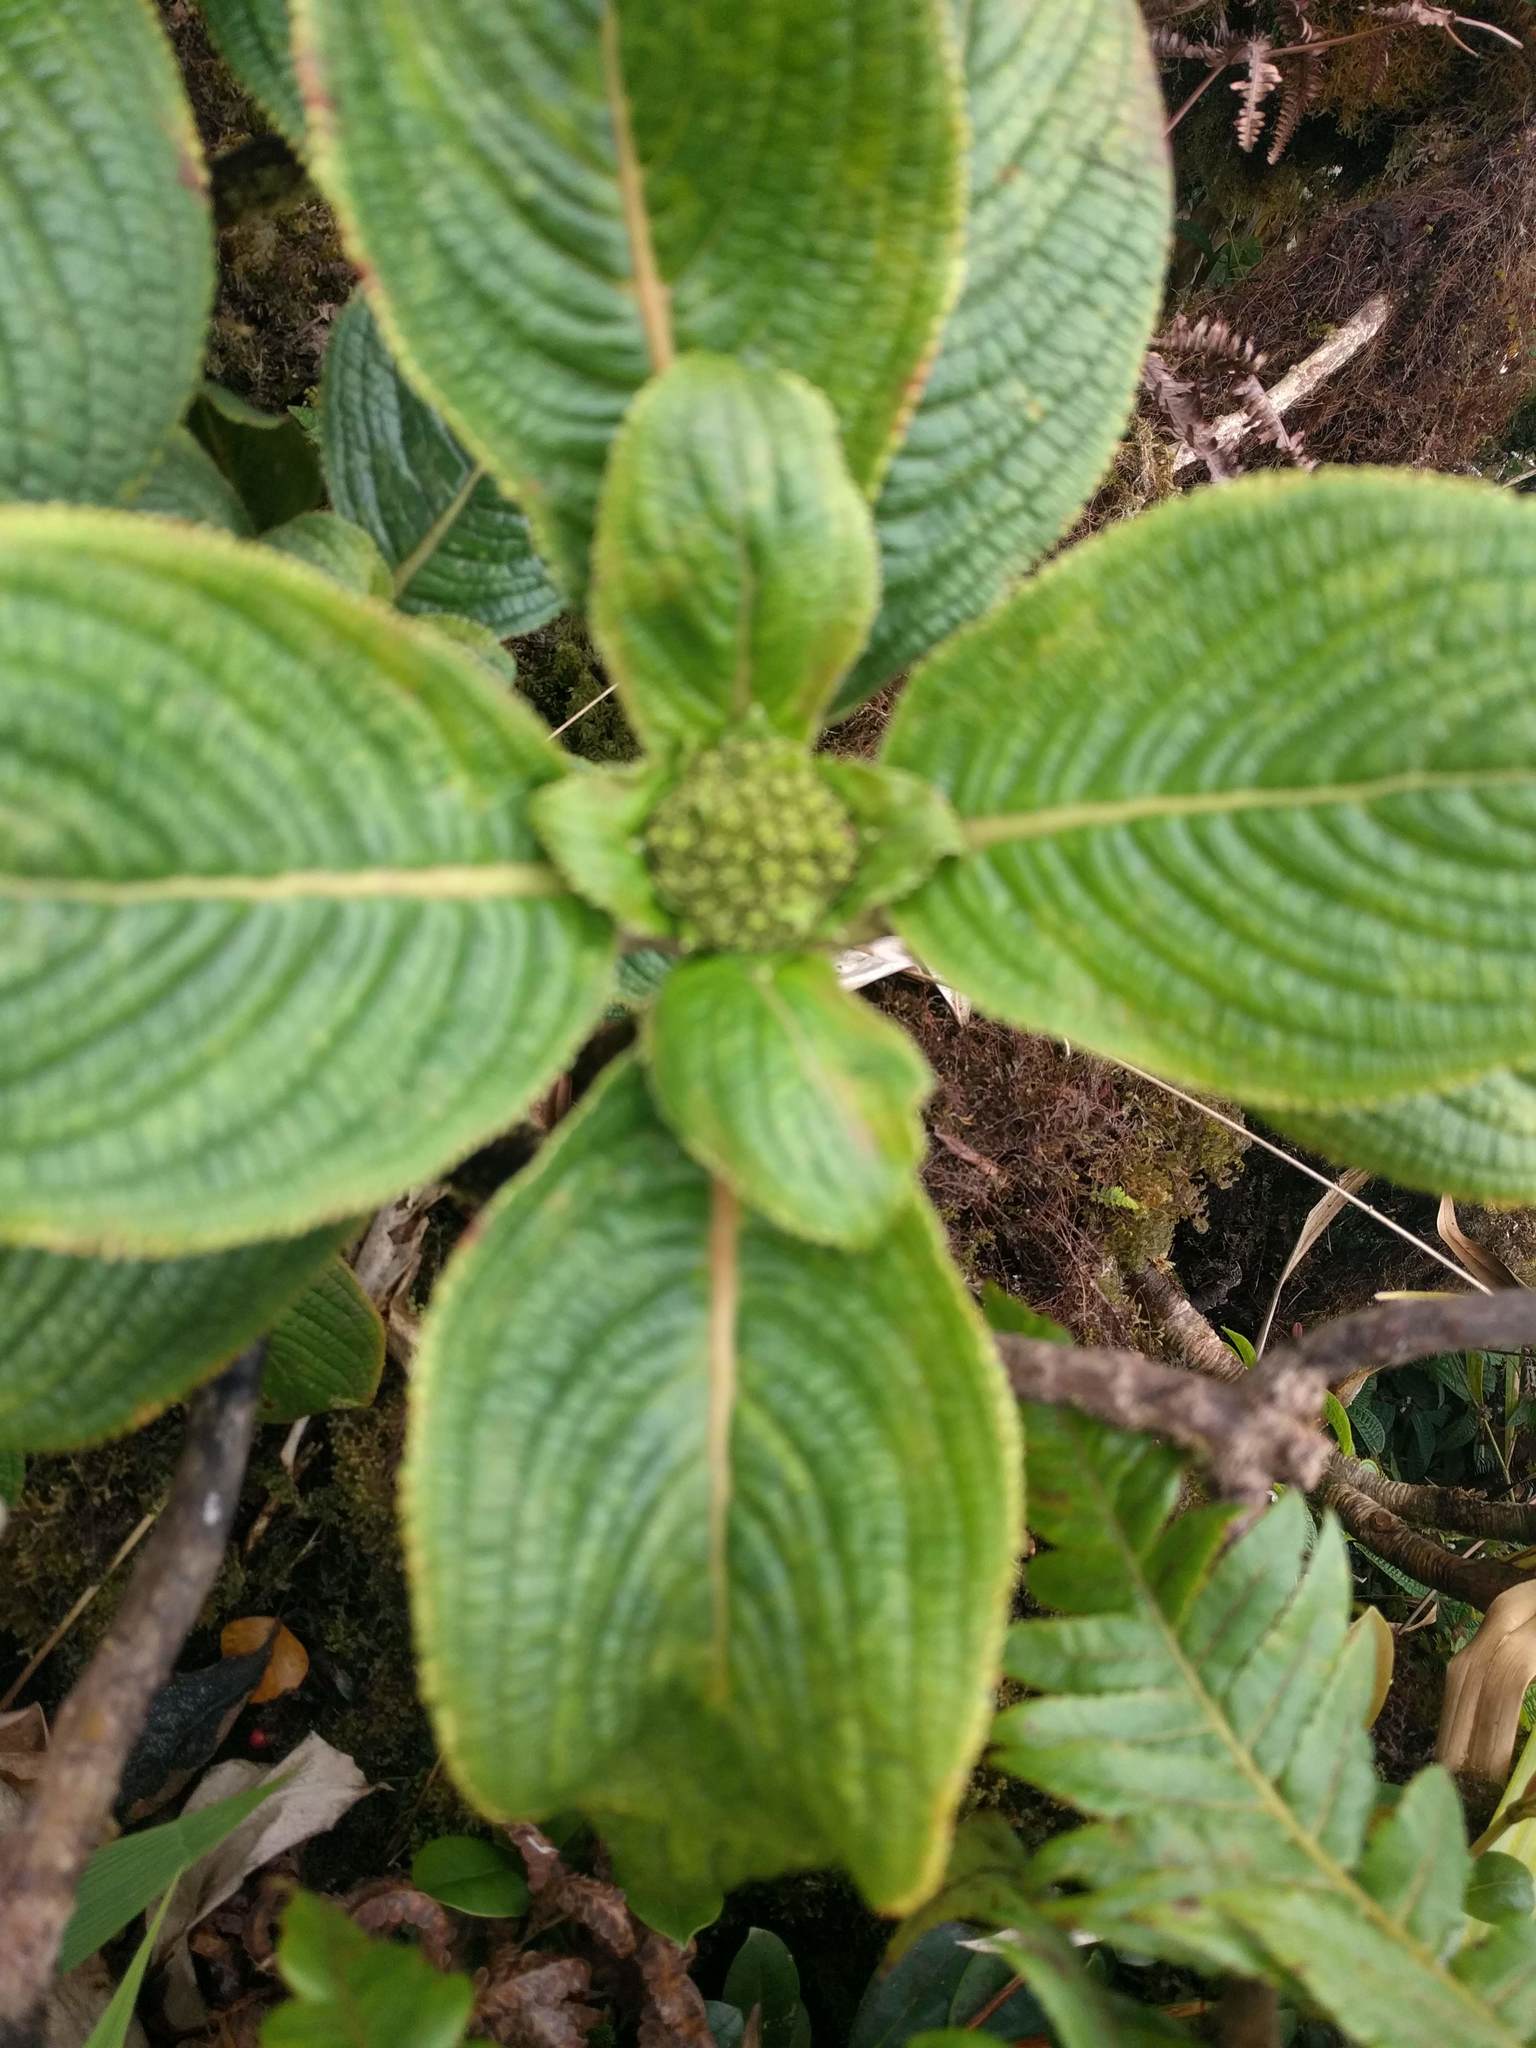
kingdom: Plantae
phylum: Tracheophyta
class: Magnoliopsida
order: Cornales
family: Hydrangeaceae
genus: Hydrangea
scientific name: Hydrangea arguta
